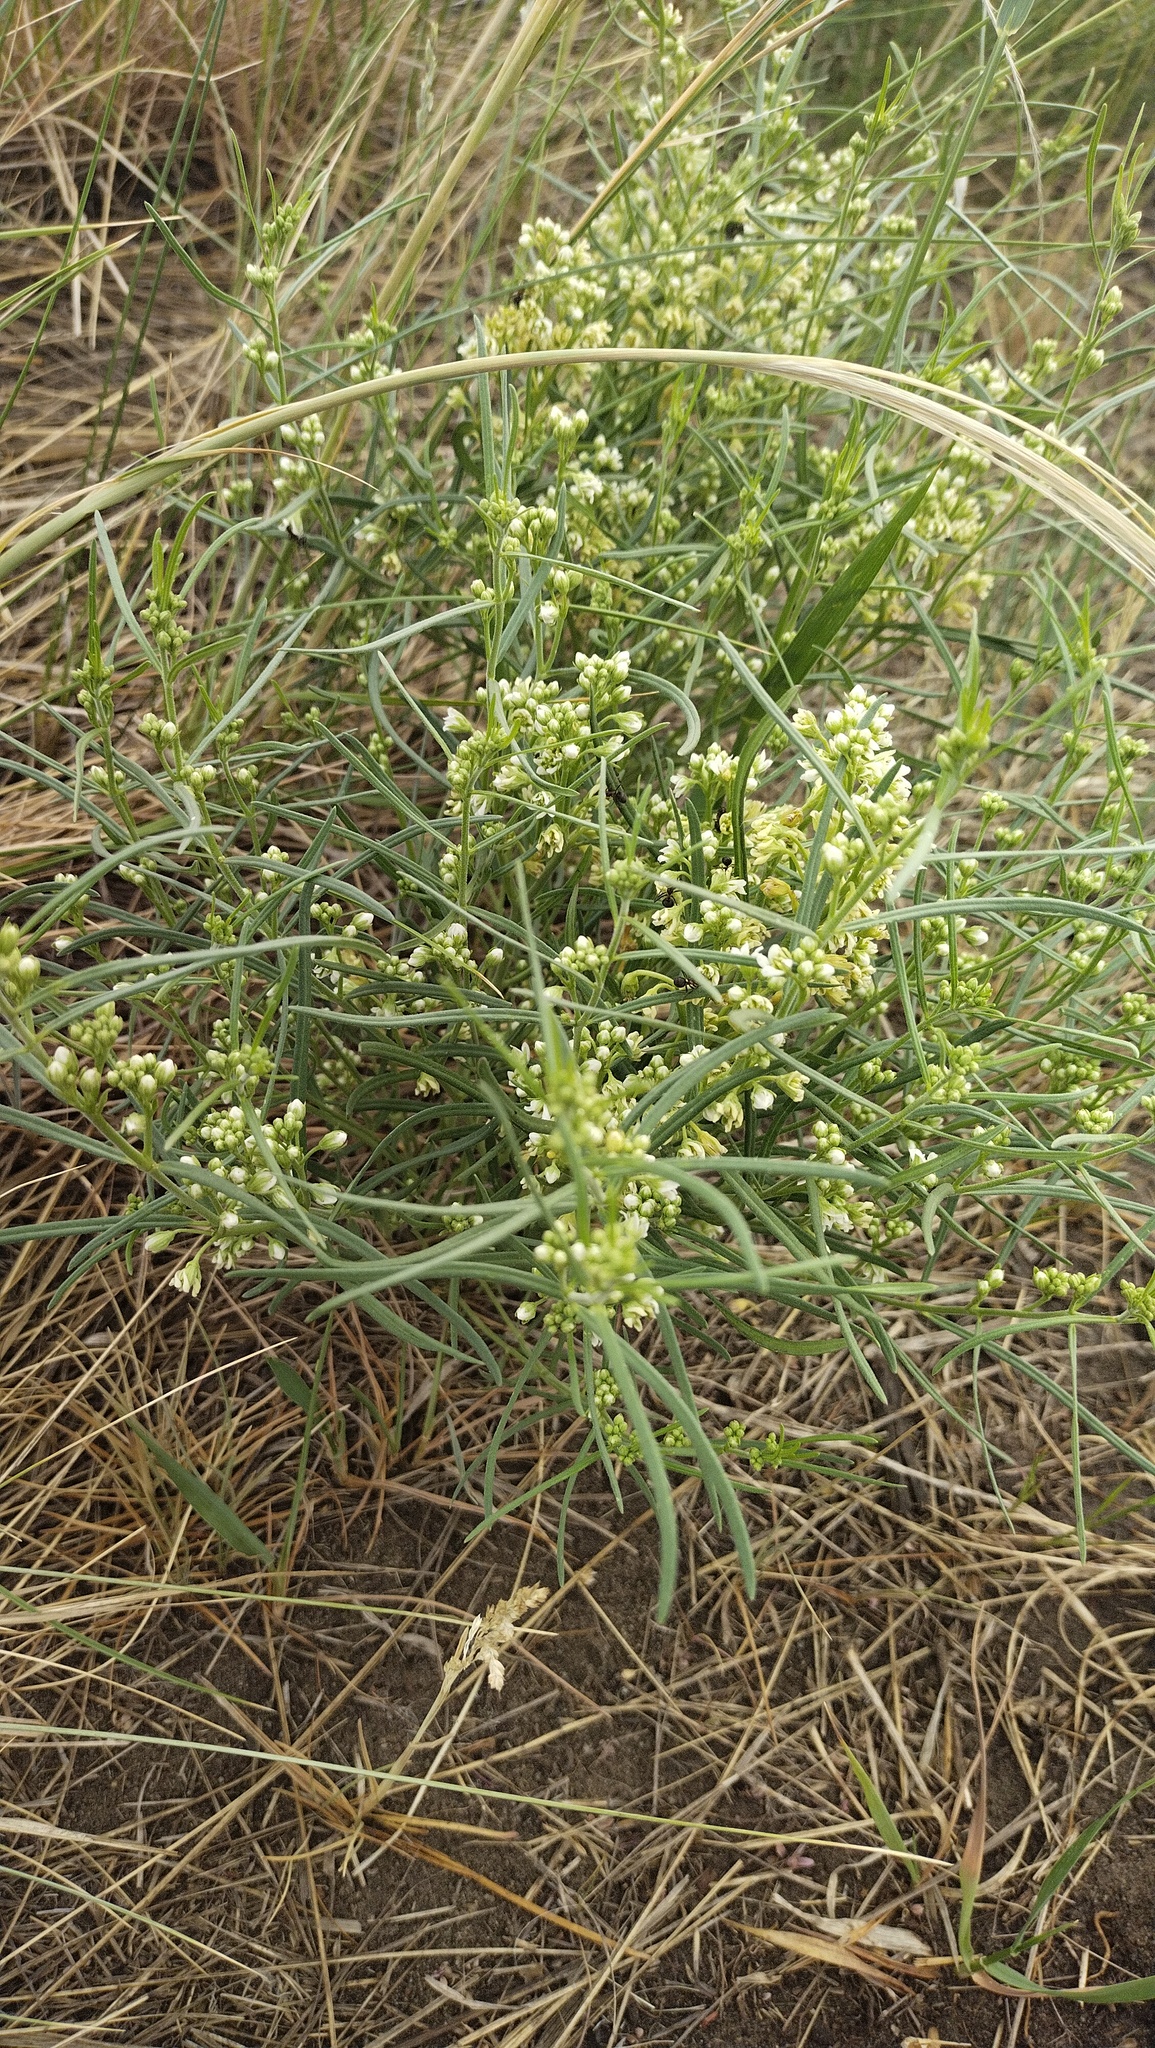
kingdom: Plantae
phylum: Tracheophyta
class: Magnoliopsida
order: Gentianales
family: Apocynaceae
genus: Cynanchum
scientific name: Cynanchum thesioides
